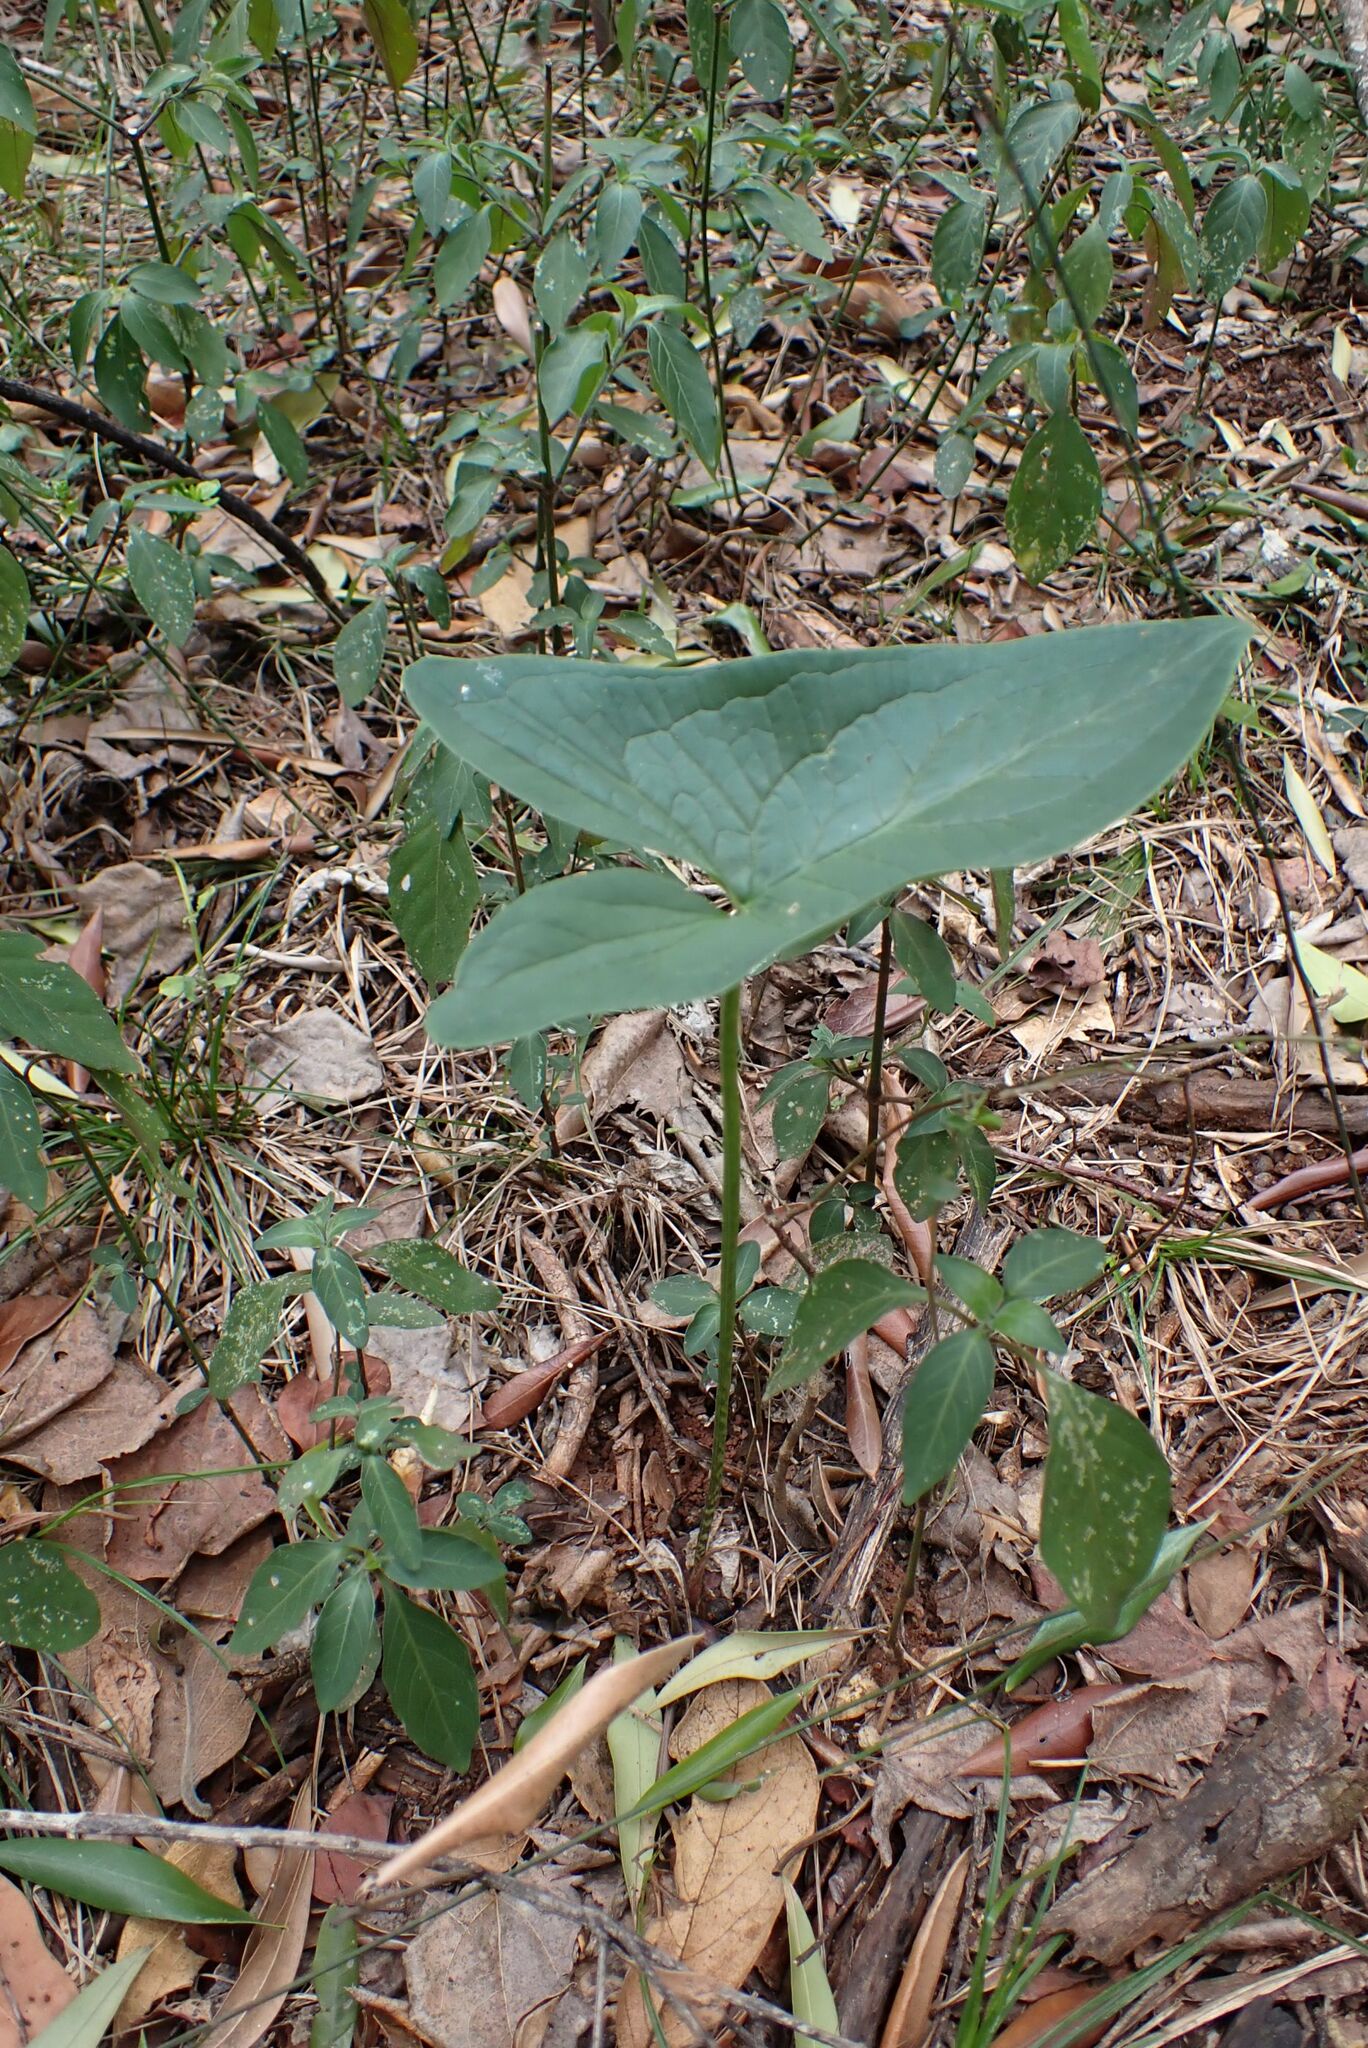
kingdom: Plantae
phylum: Tracheophyta
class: Liliopsida
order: Alismatales
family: Araceae
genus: Stylochaeton
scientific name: Stylochaeton natalensis
